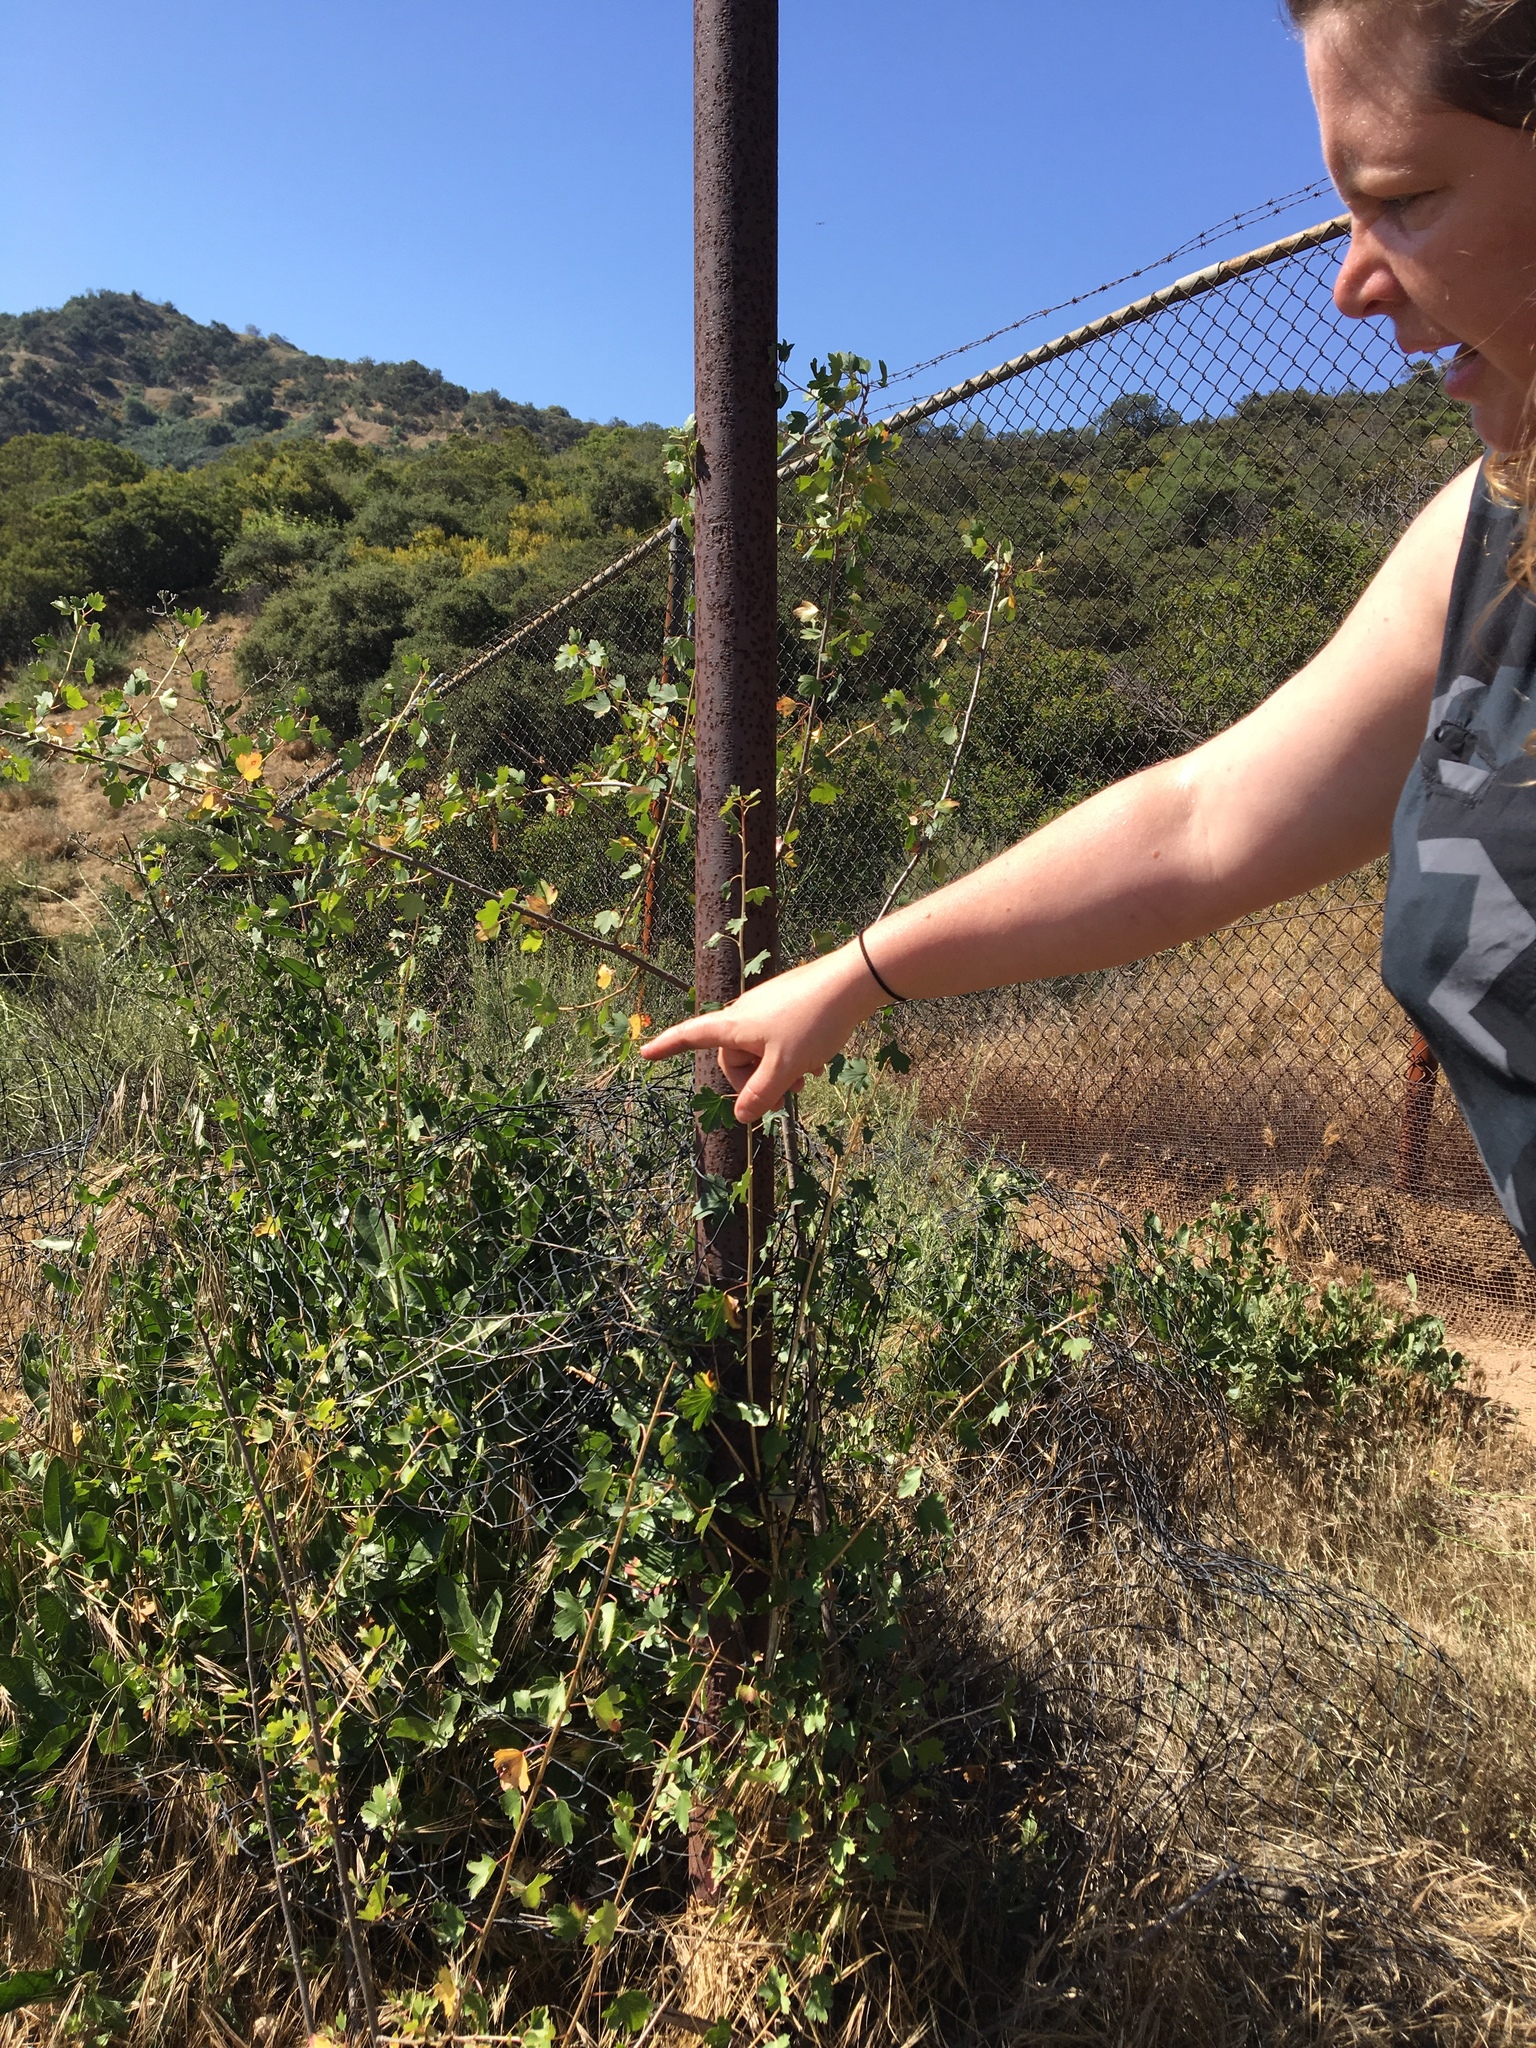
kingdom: Plantae
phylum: Tracheophyta
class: Magnoliopsida
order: Saxifragales
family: Grossulariaceae
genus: Ribes
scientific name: Ribes aureum
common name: Golden currant
